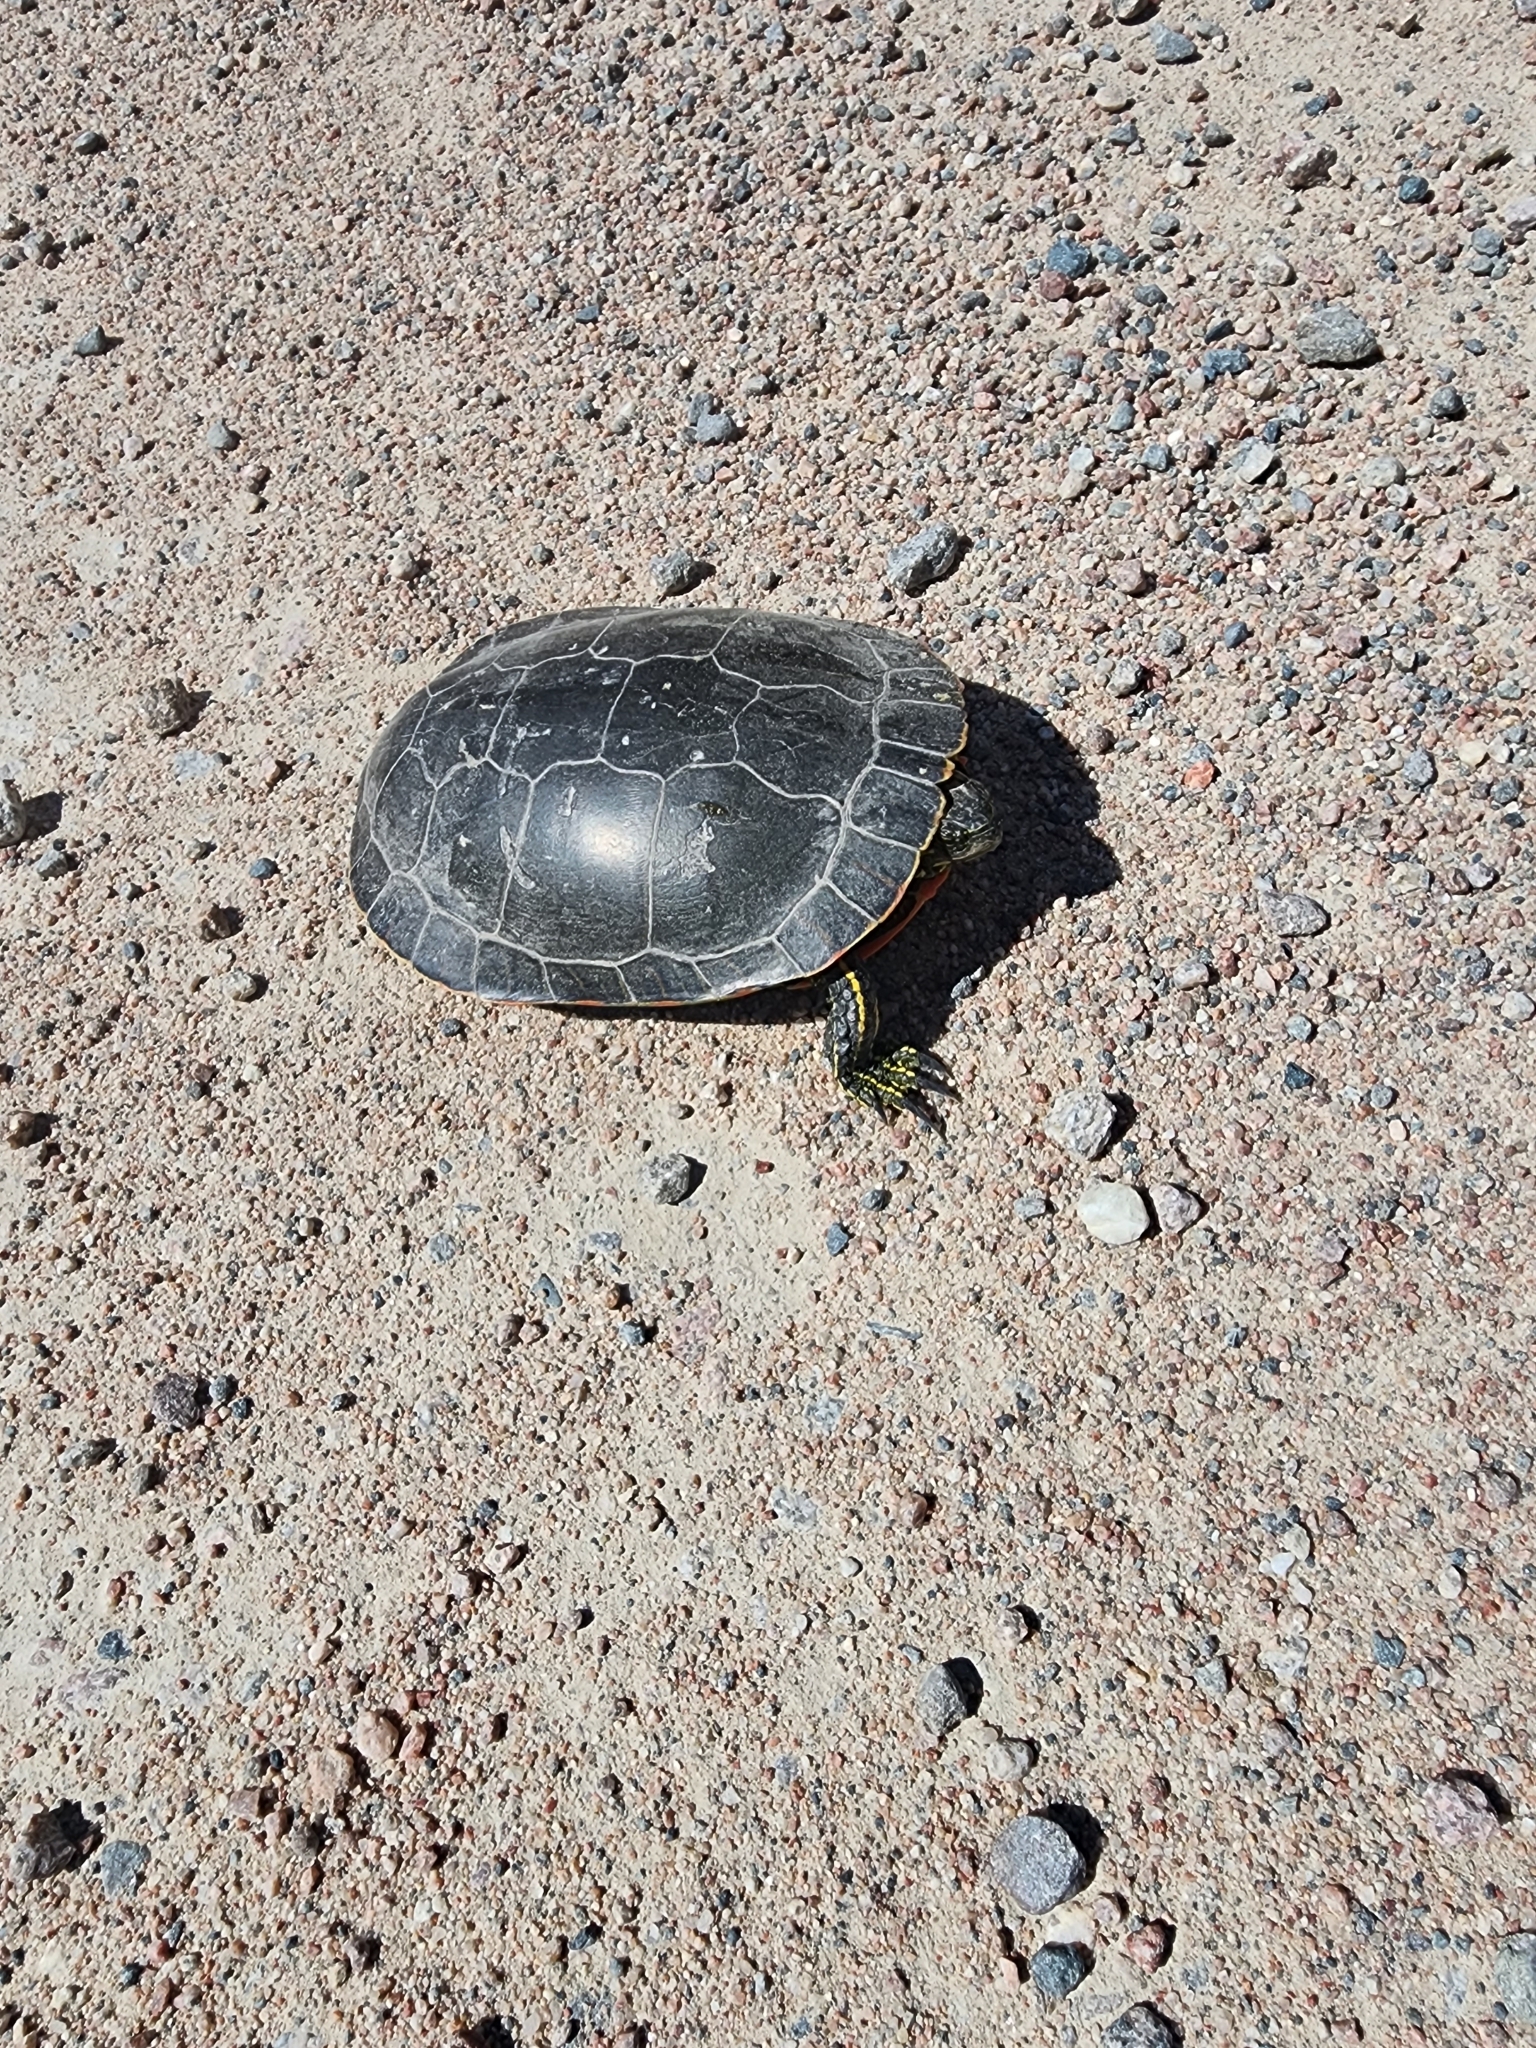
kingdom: Animalia
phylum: Chordata
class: Testudines
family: Emydidae
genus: Chrysemys
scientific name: Chrysemys picta
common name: Painted turtle
